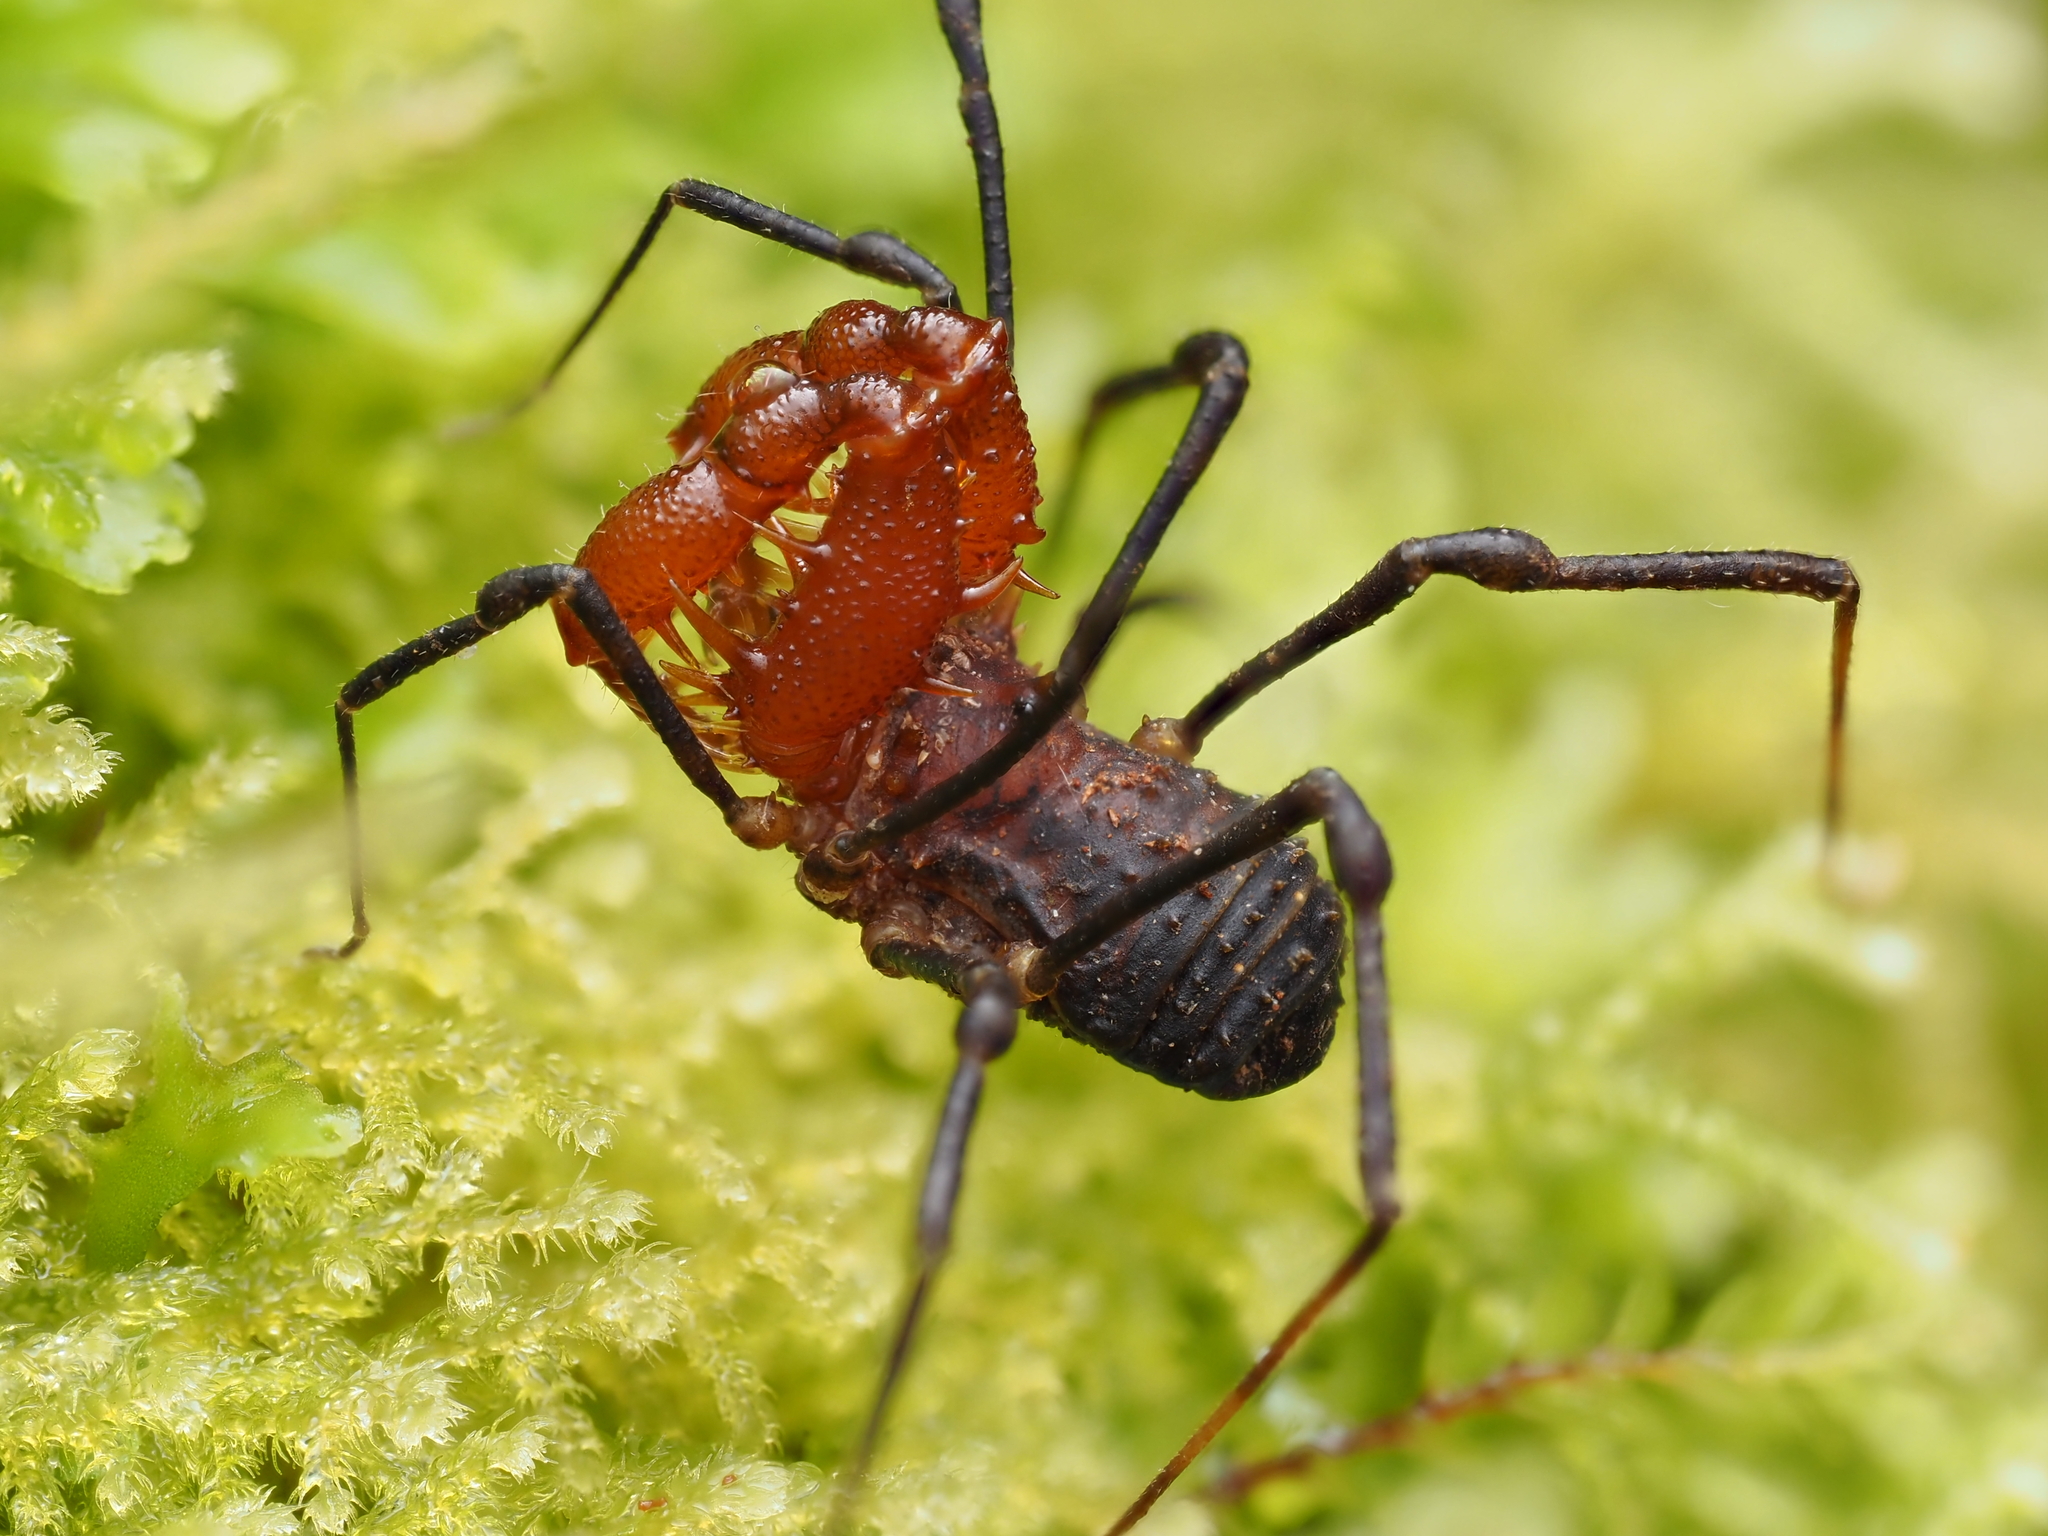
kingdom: Animalia
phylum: Arthropoda
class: Arachnida
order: Opiliones
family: Triaenonychidae
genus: Sorensenella
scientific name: Sorensenella prehensor
